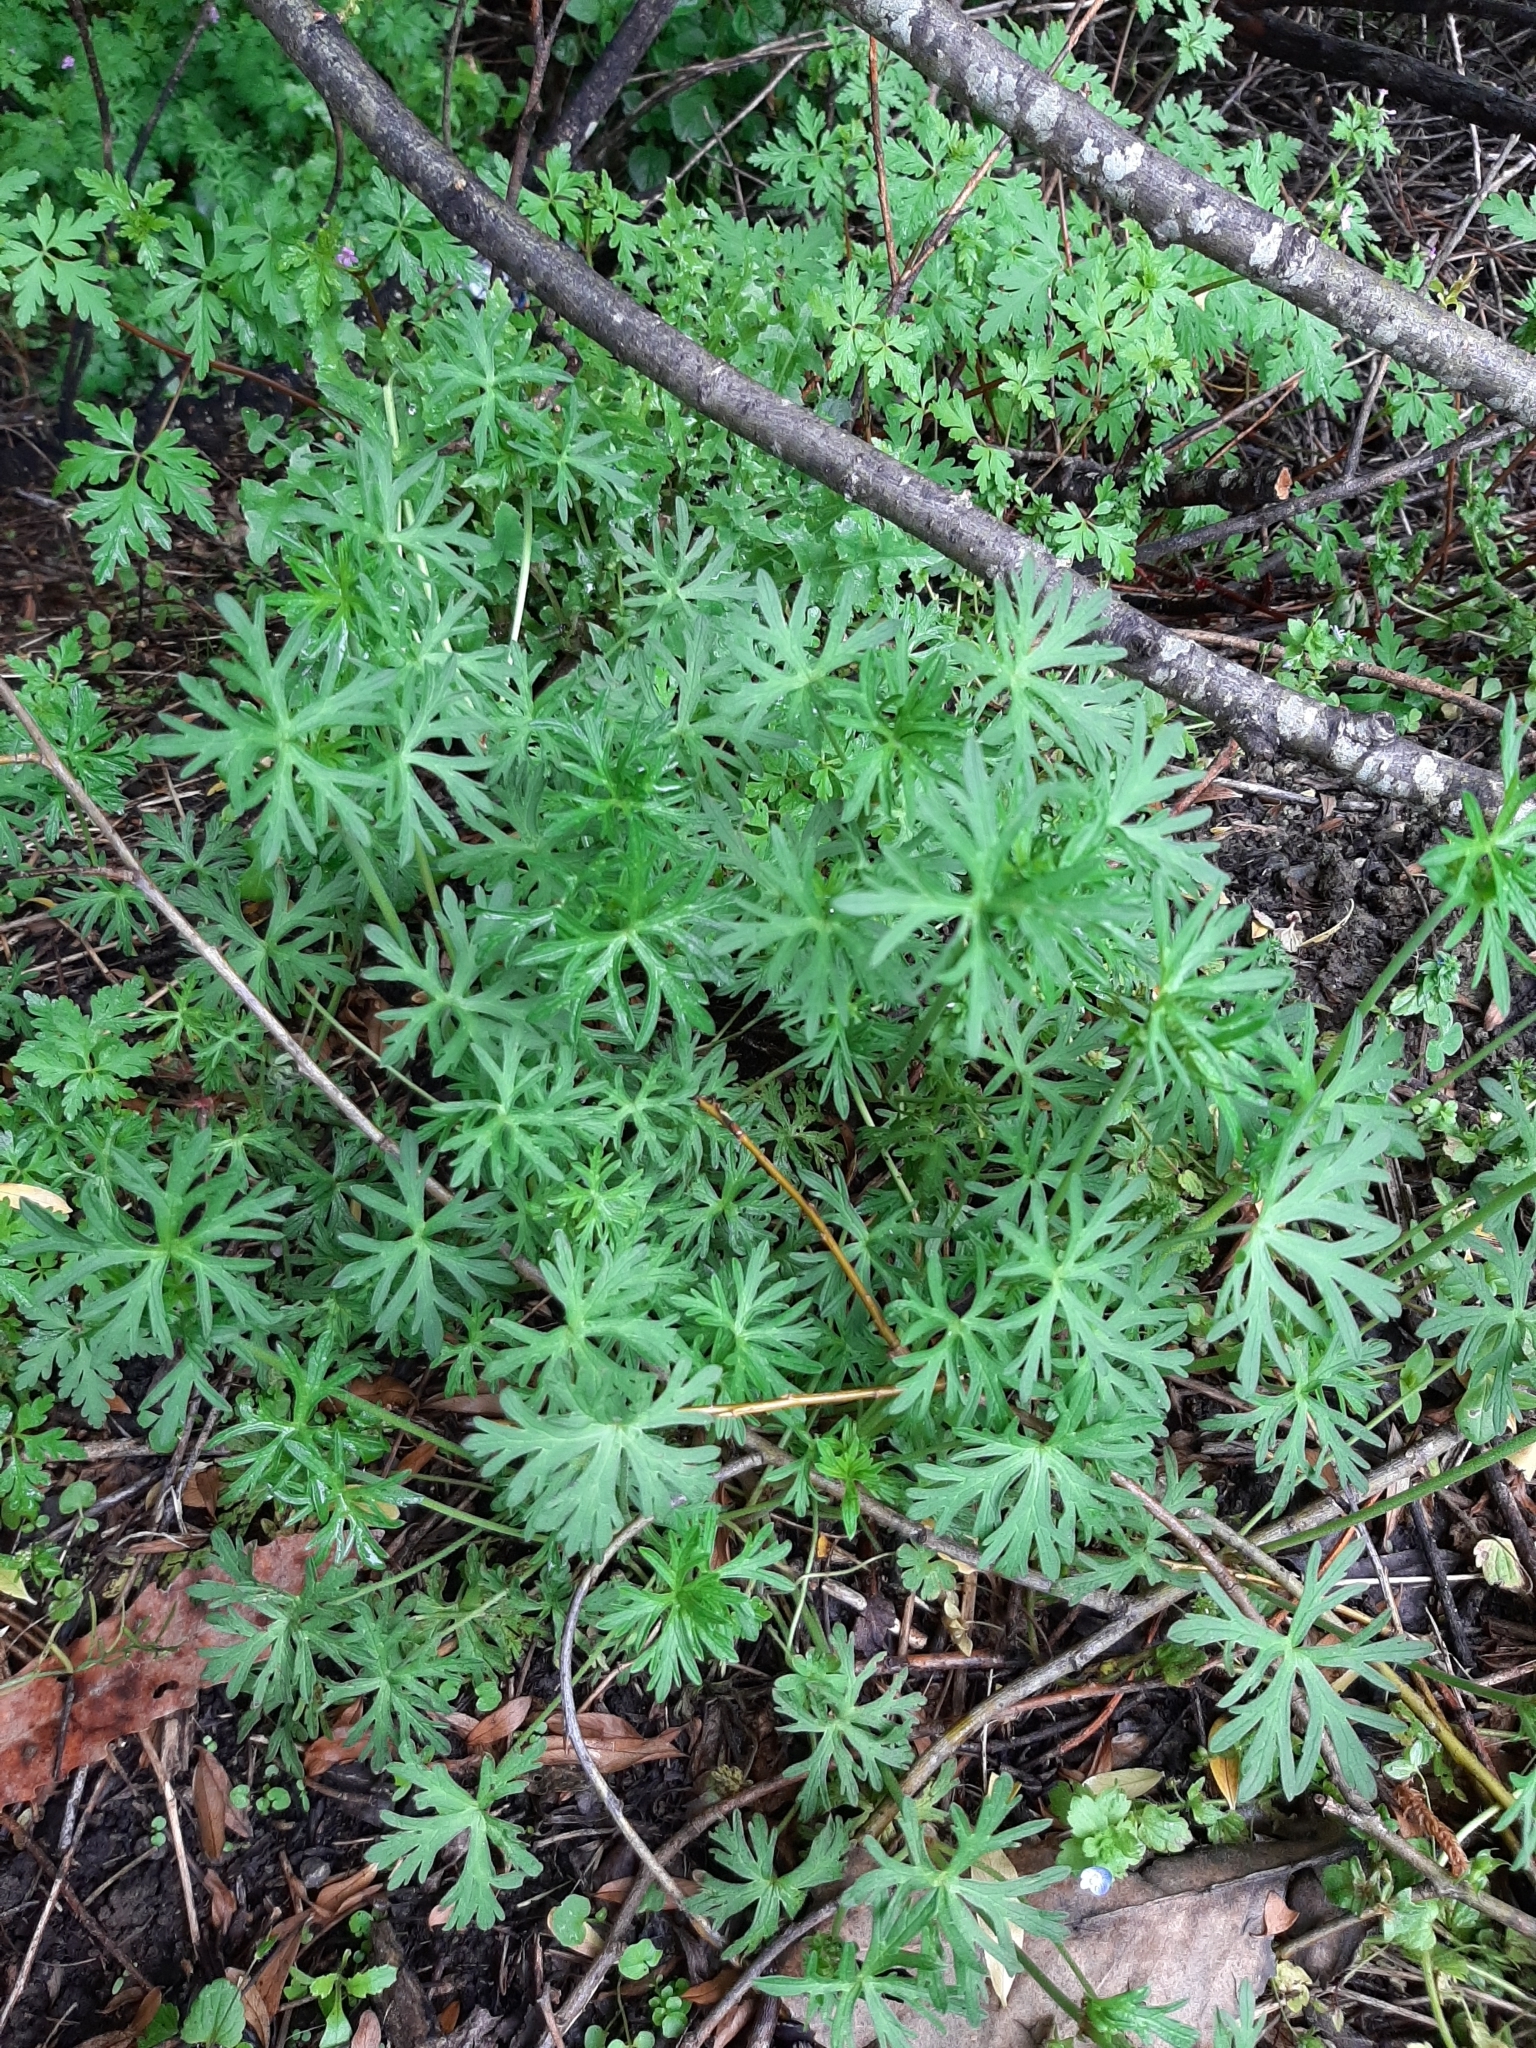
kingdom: Plantae
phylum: Tracheophyta
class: Magnoliopsida
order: Geraniales
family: Geraniaceae
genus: Geranium
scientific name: Geranium dissectum
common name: Cut-leaved crane's-bill
